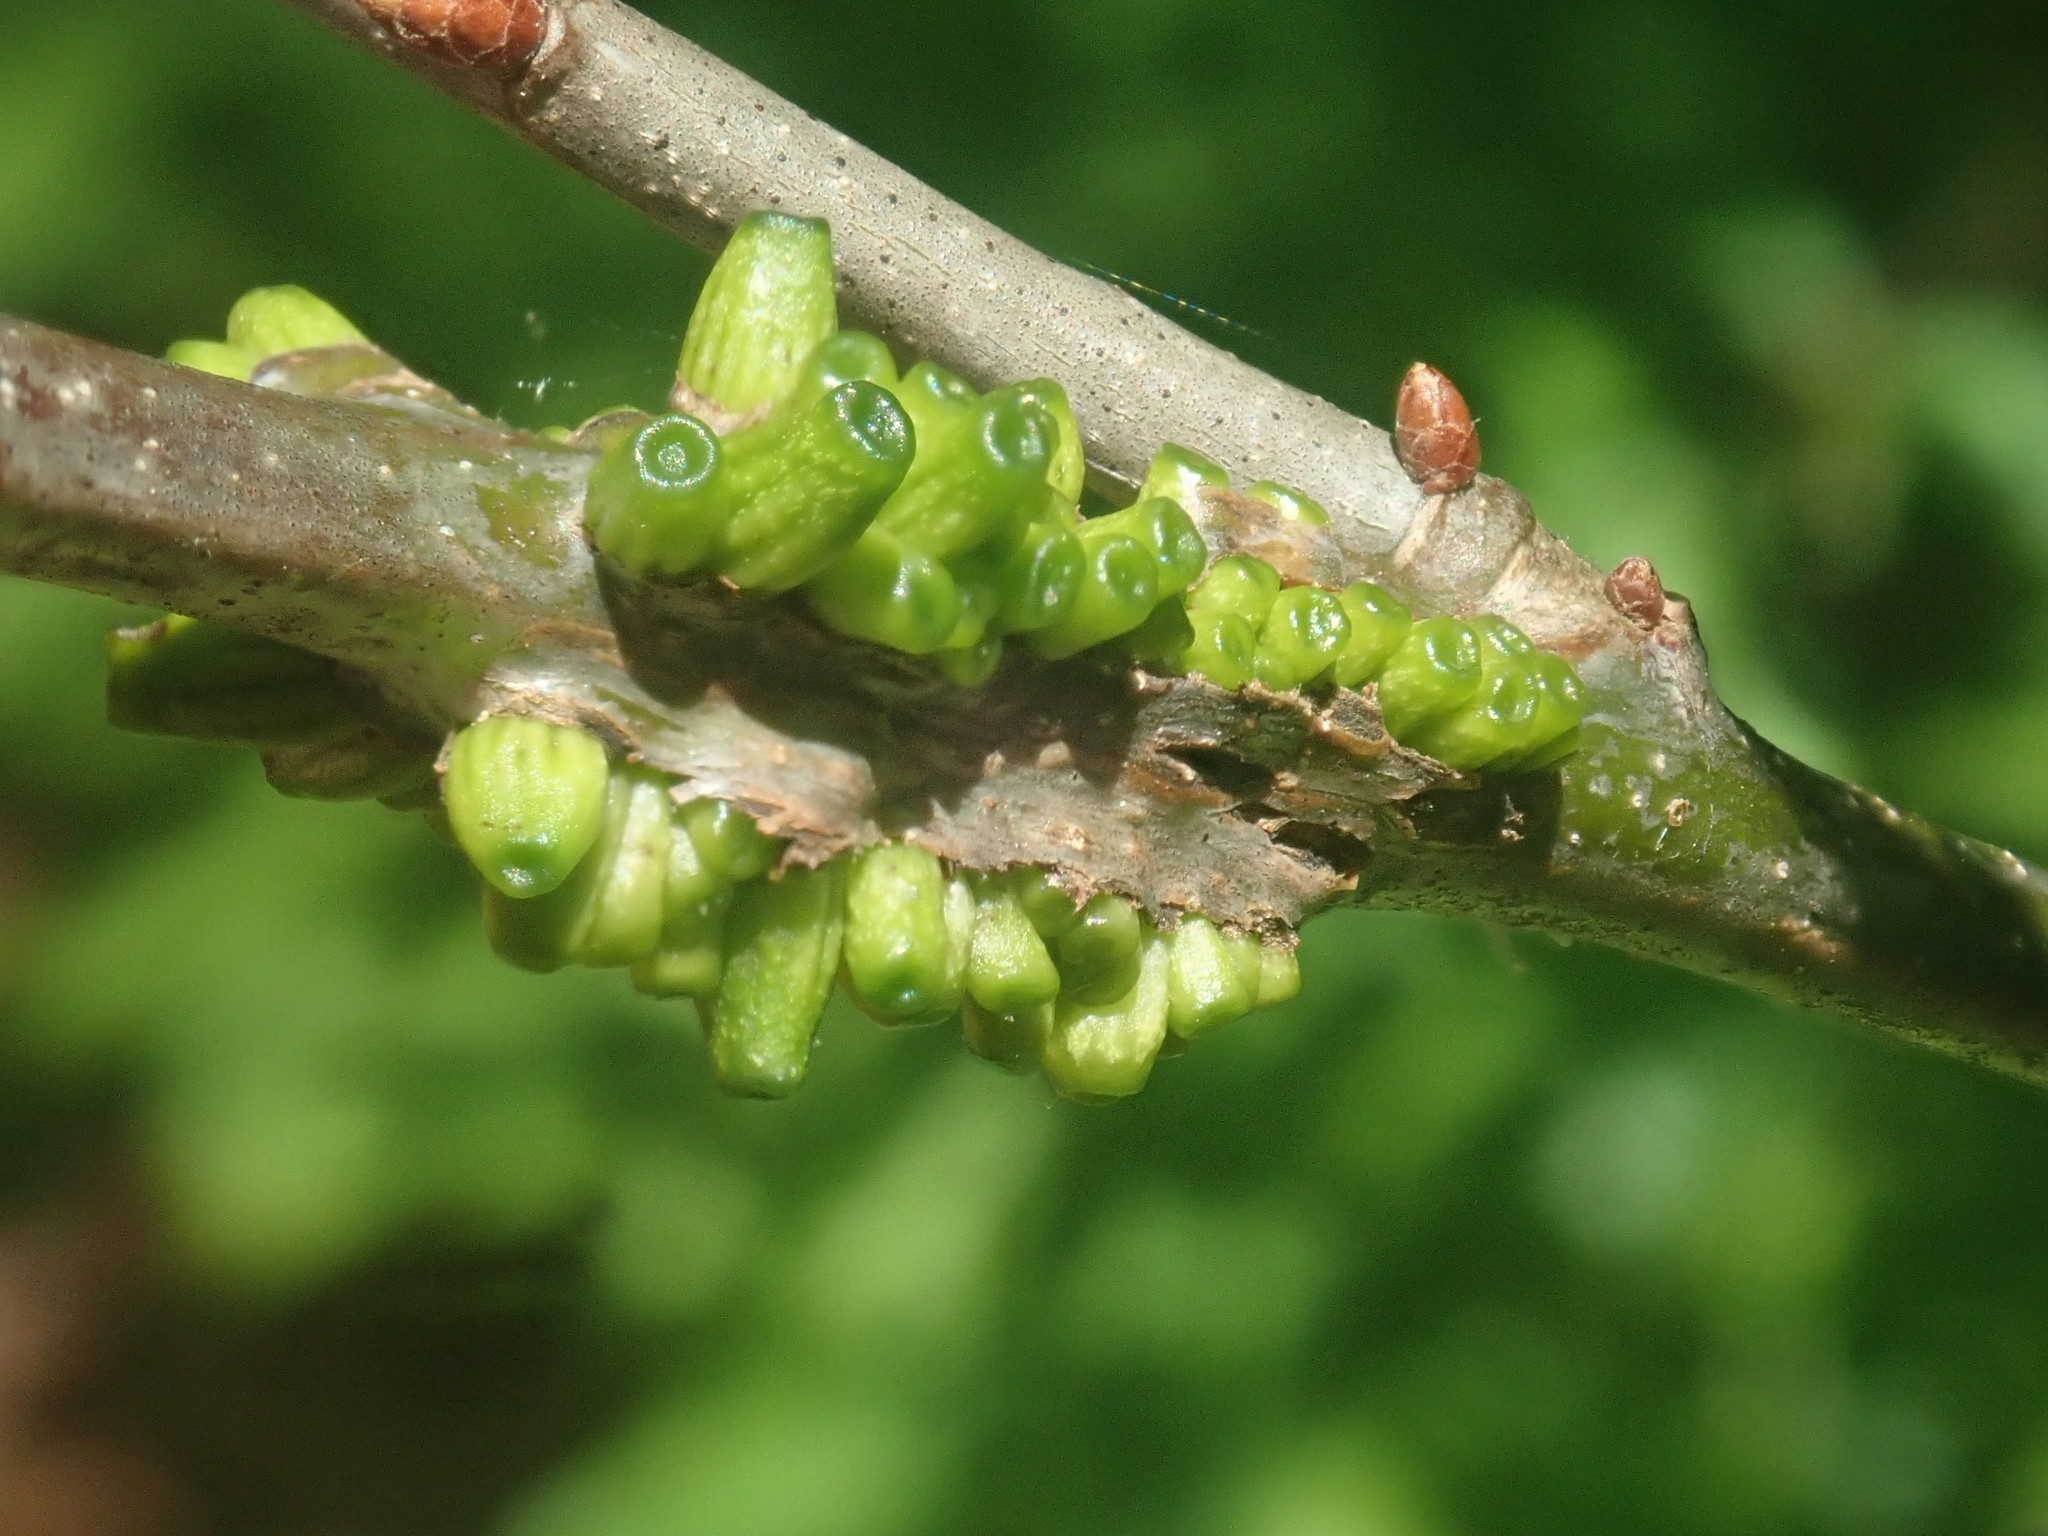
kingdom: Animalia
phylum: Arthropoda
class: Insecta
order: Hymenoptera
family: Cynipidae
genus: Callirhytis
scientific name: Callirhytis
